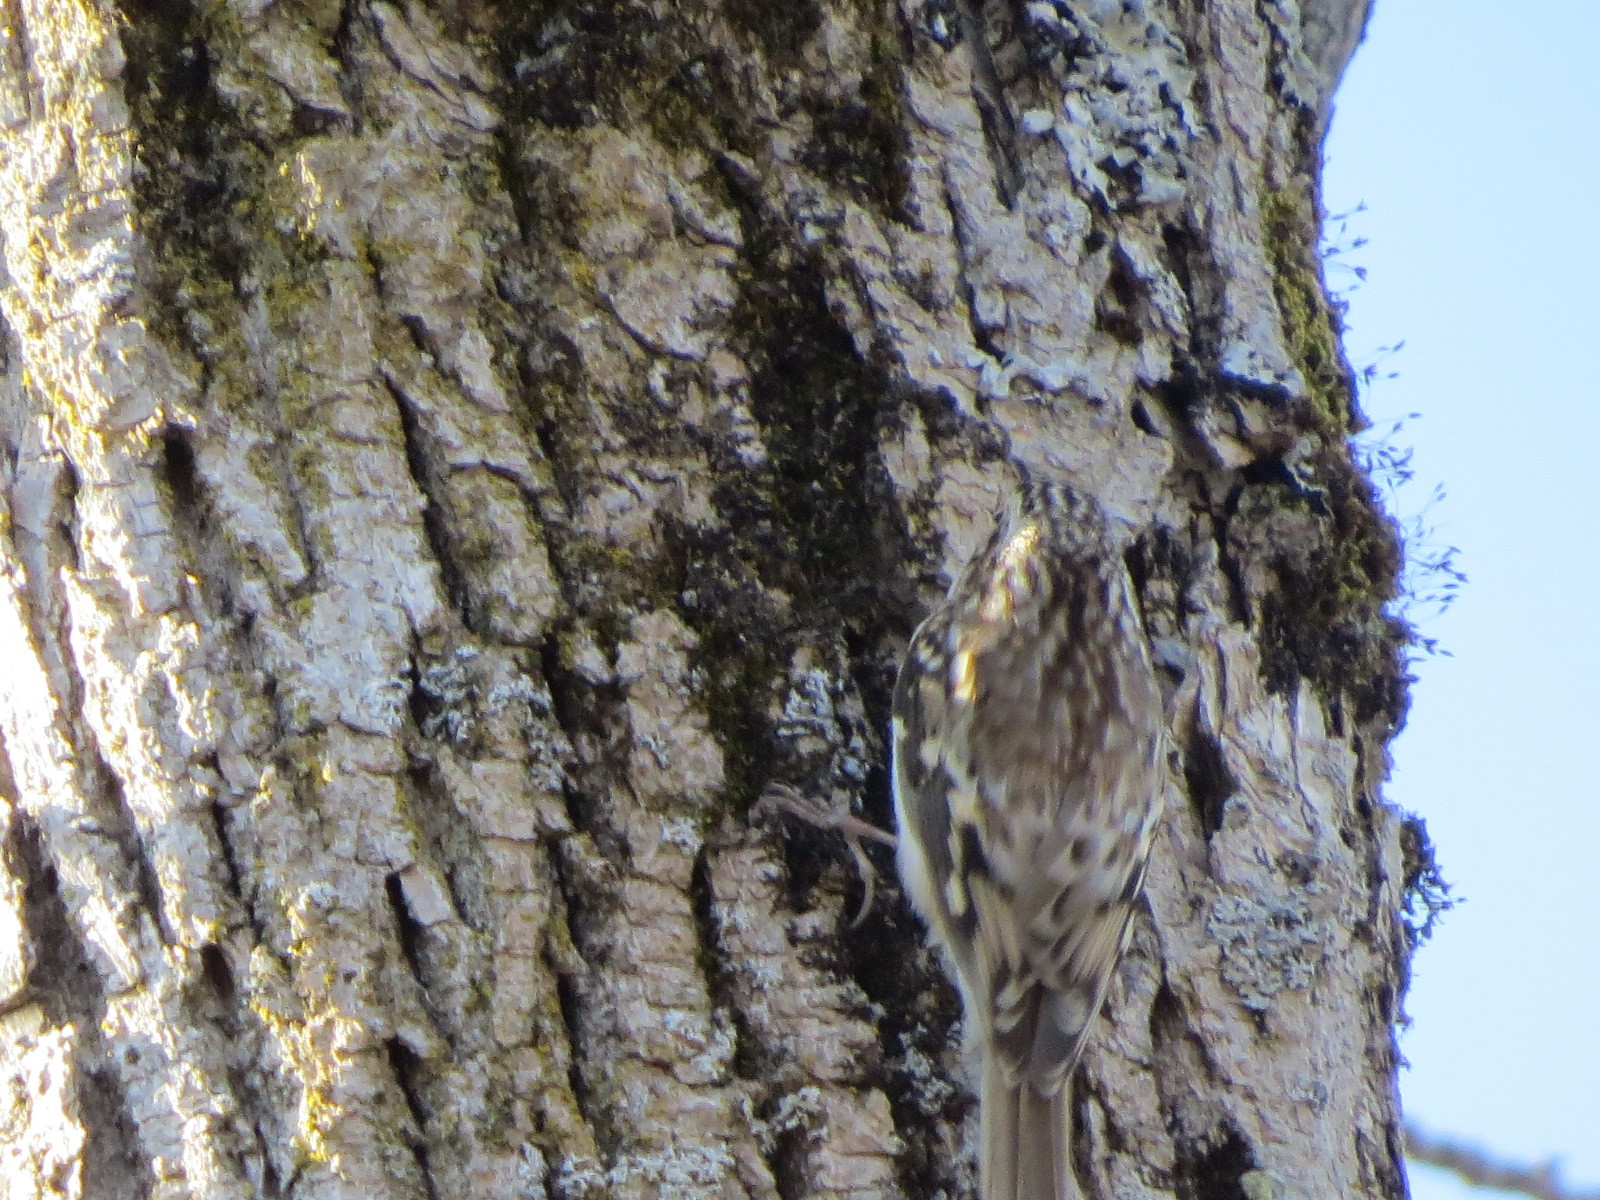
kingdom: Animalia
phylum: Chordata
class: Aves
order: Passeriformes
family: Certhiidae
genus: Certhia
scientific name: Certhia americana
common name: Brown creeper
